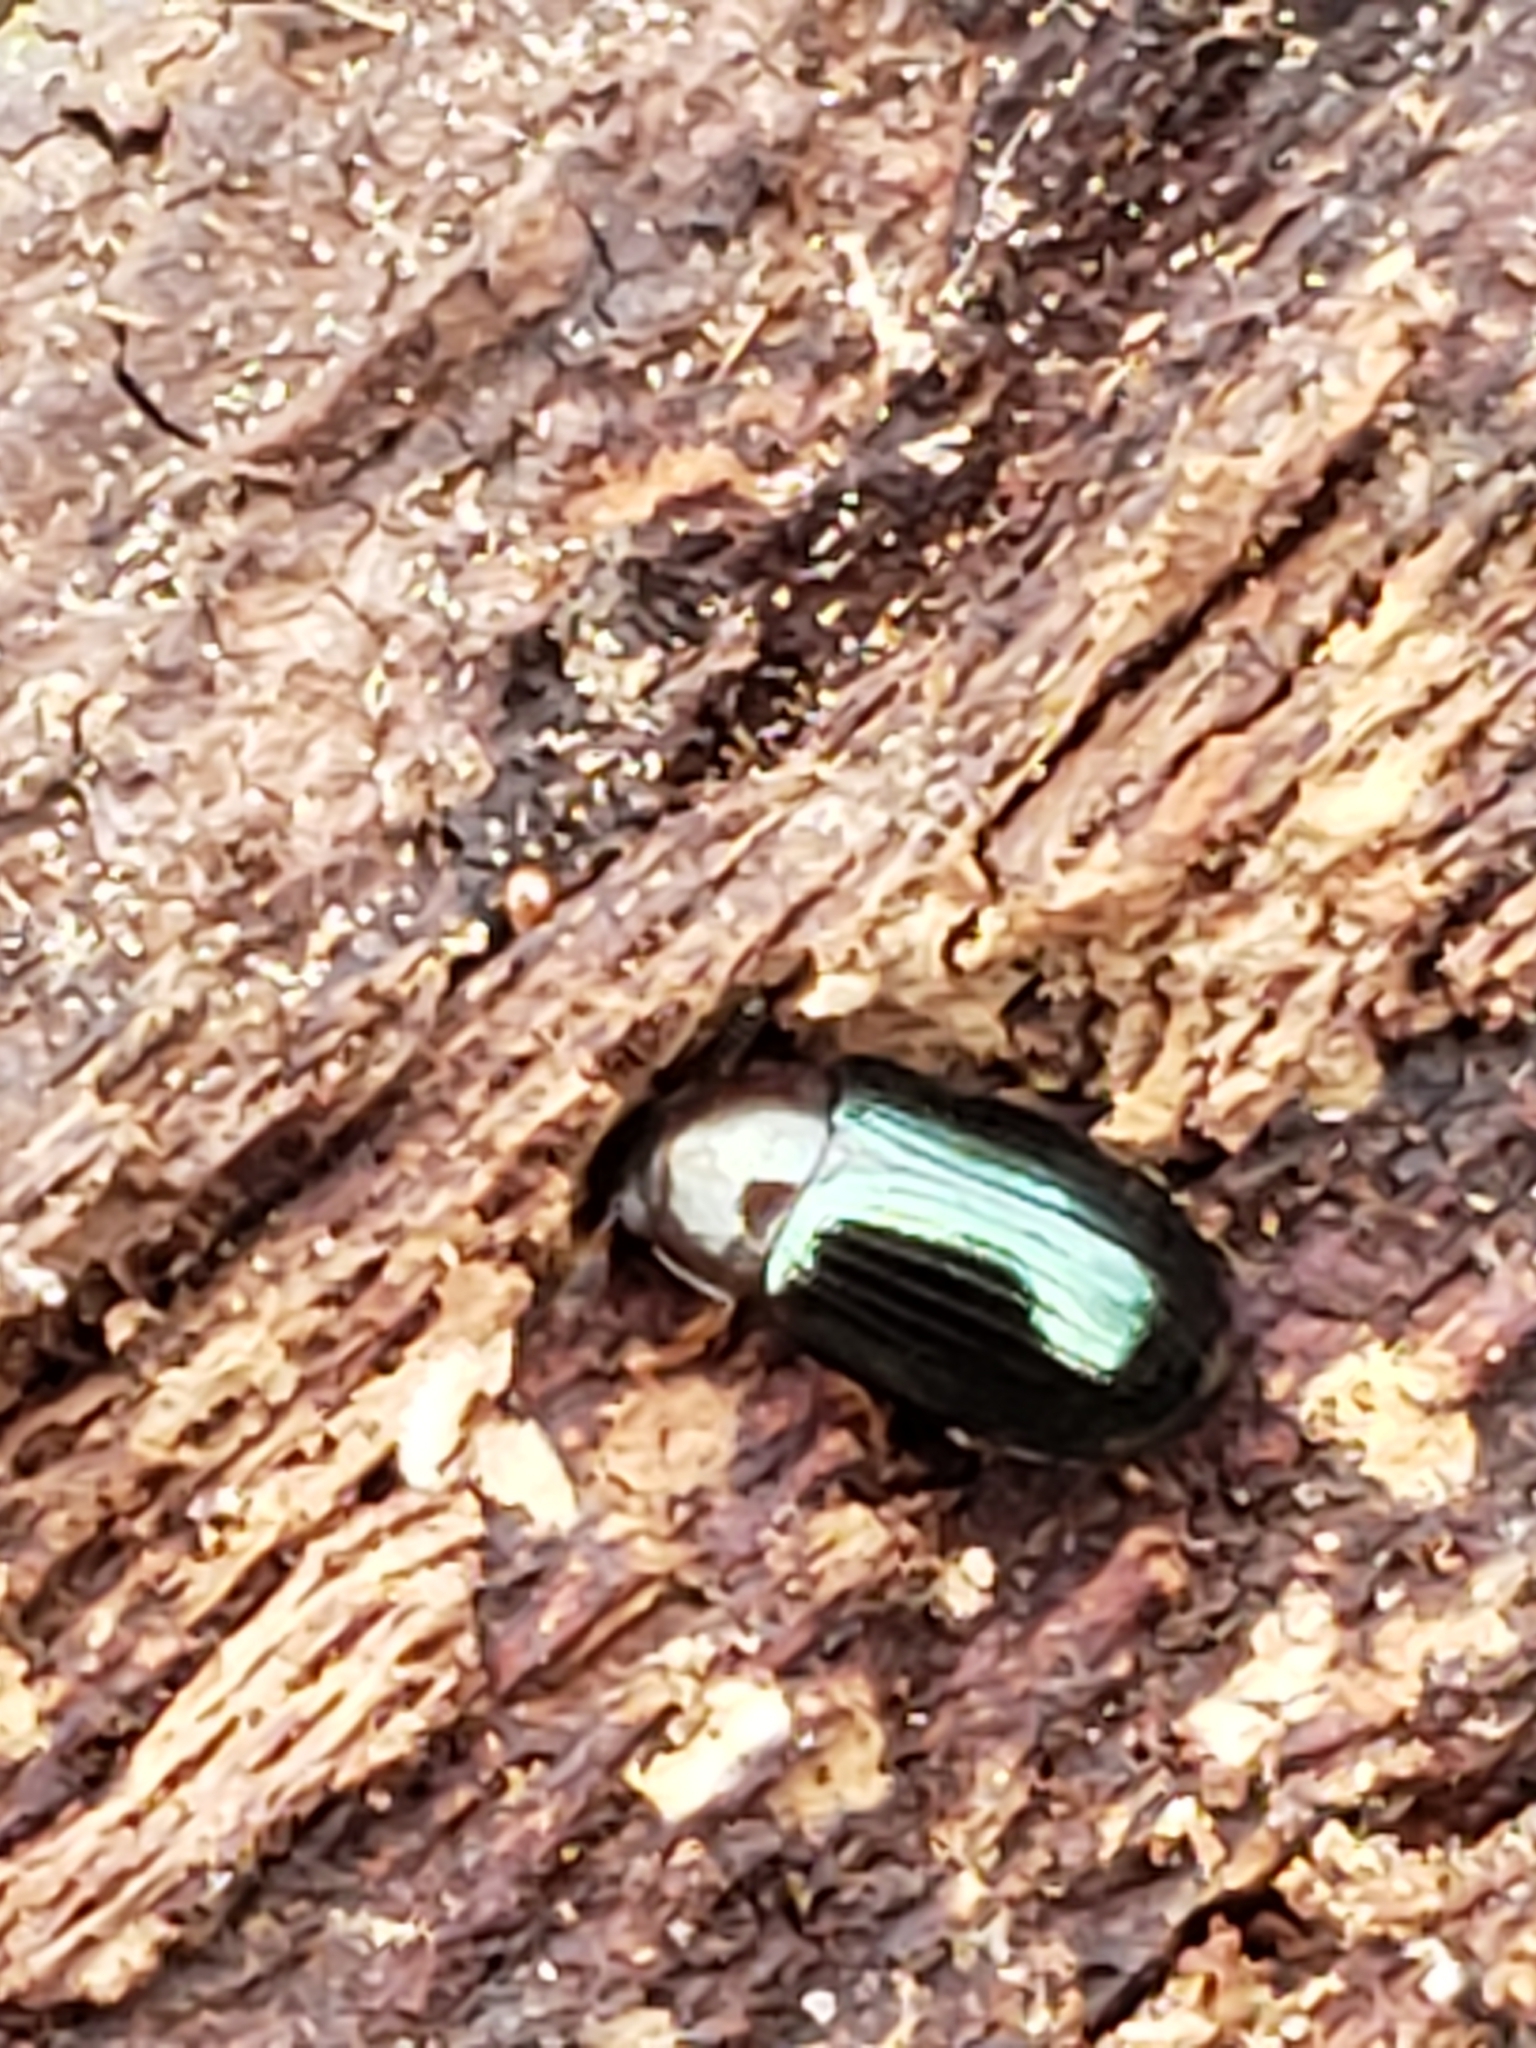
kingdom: Animalia
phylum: Arthropoda
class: Insecta
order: Coleoptera
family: Tenebrionidae
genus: Neomida
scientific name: Neomida bicornis
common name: Two-horned darkling beetle
